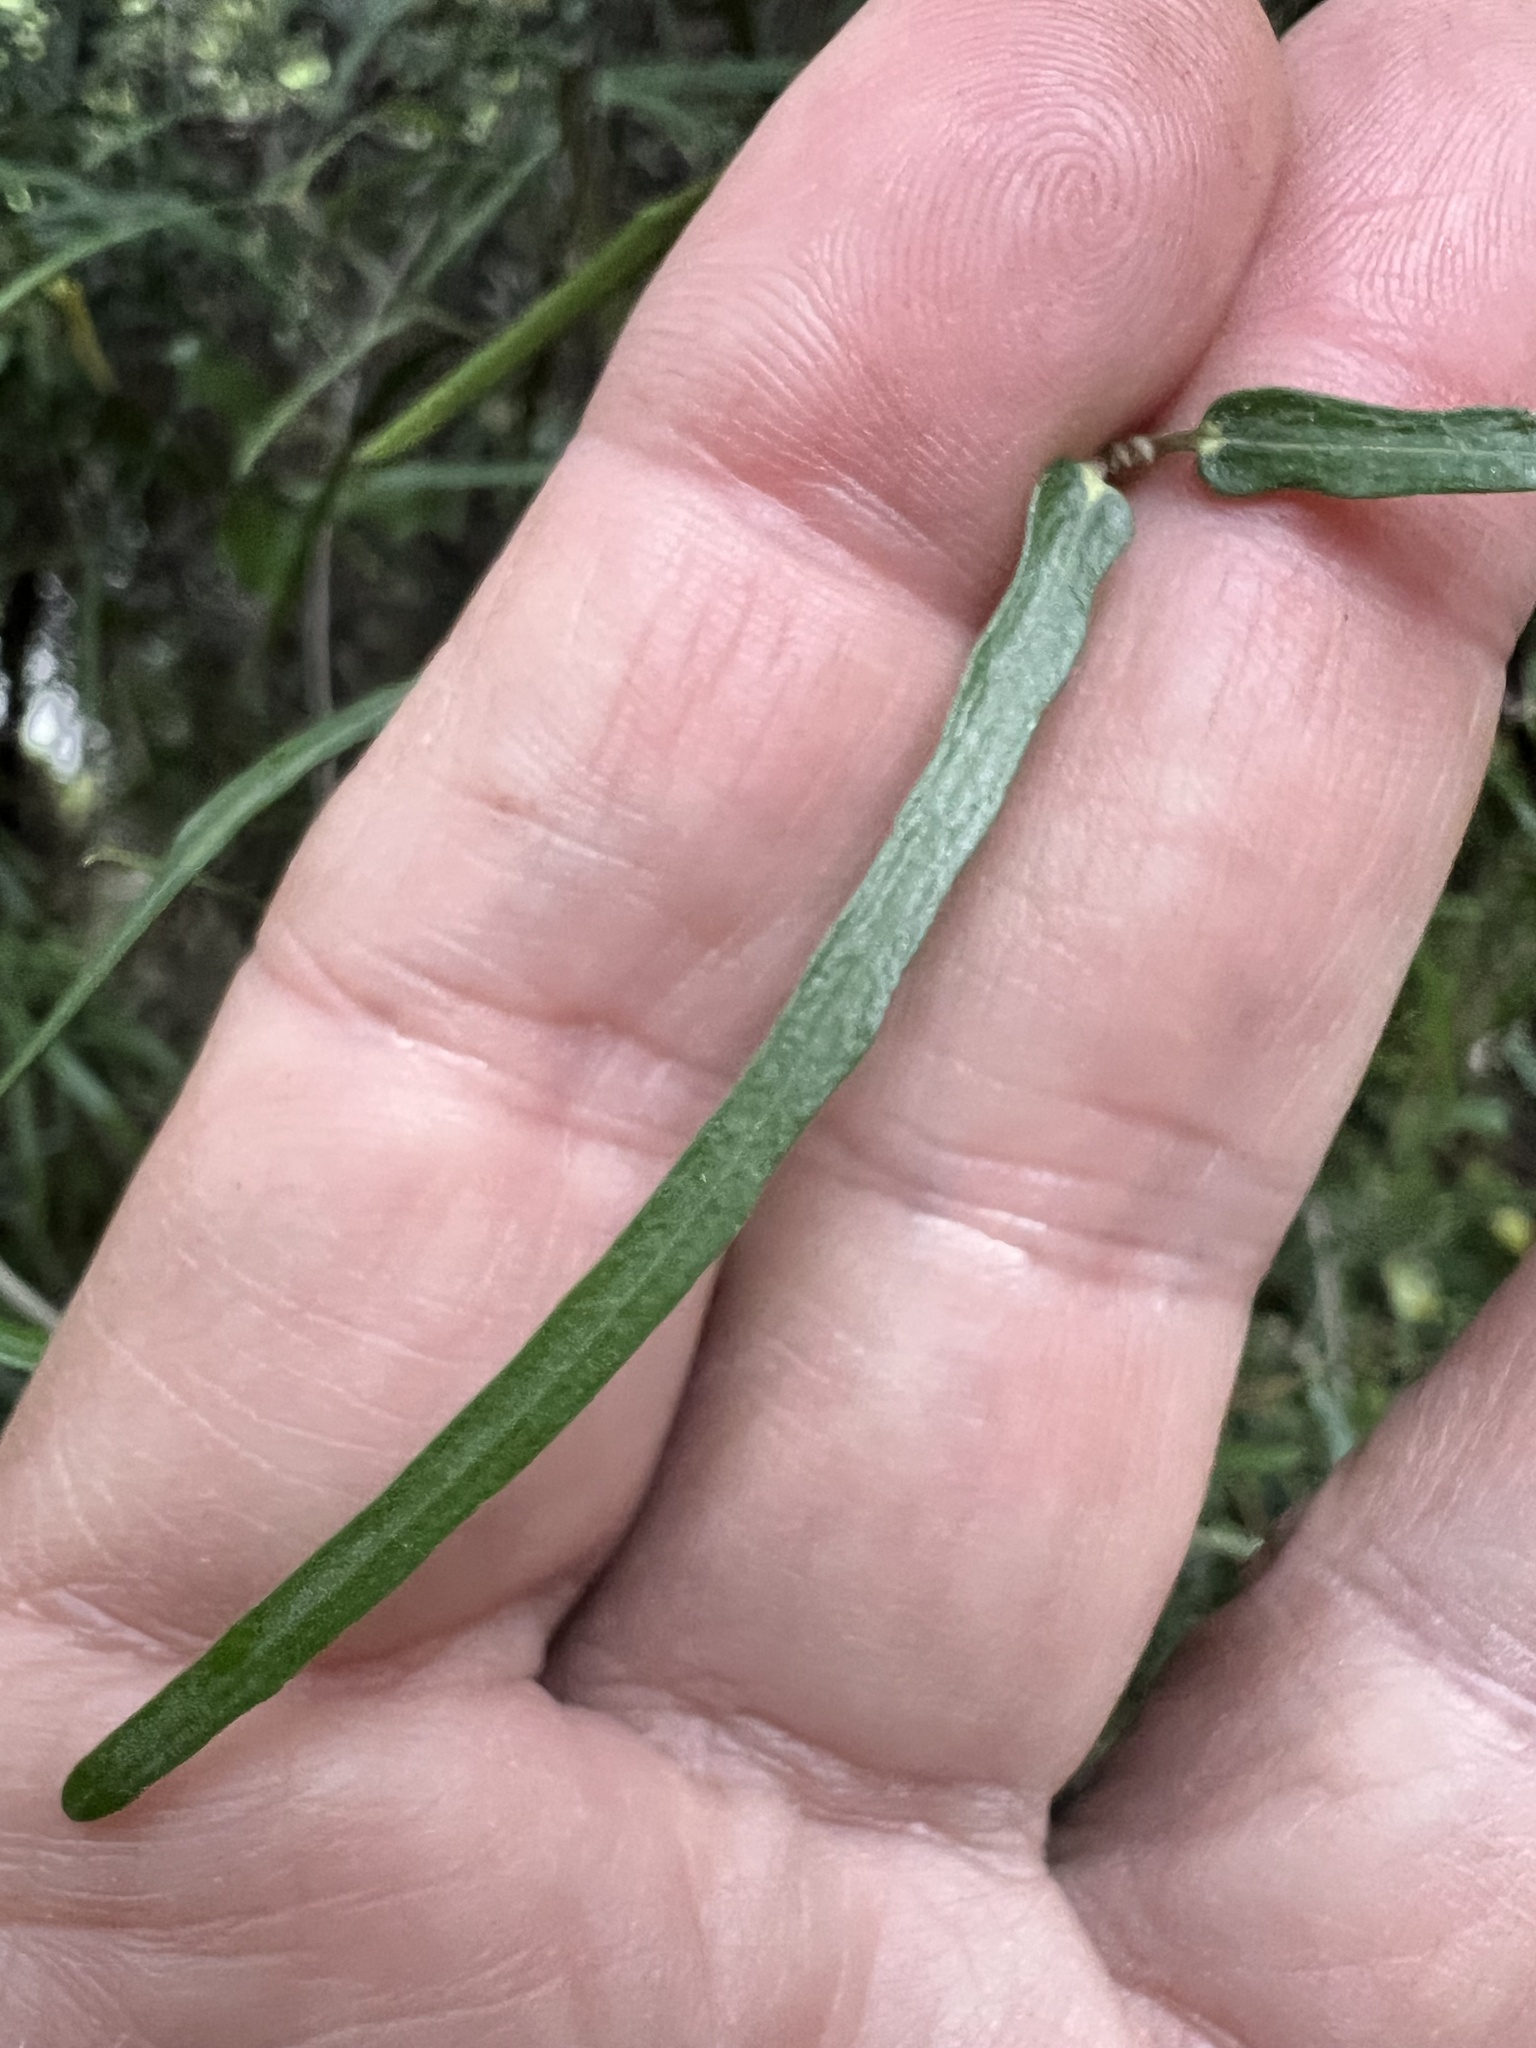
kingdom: Plantae
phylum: Tracheophyta
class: Magnoliopsida
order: Gentianales
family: Apocynaceae
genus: Parsonsia
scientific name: Parsonsia capsularis
